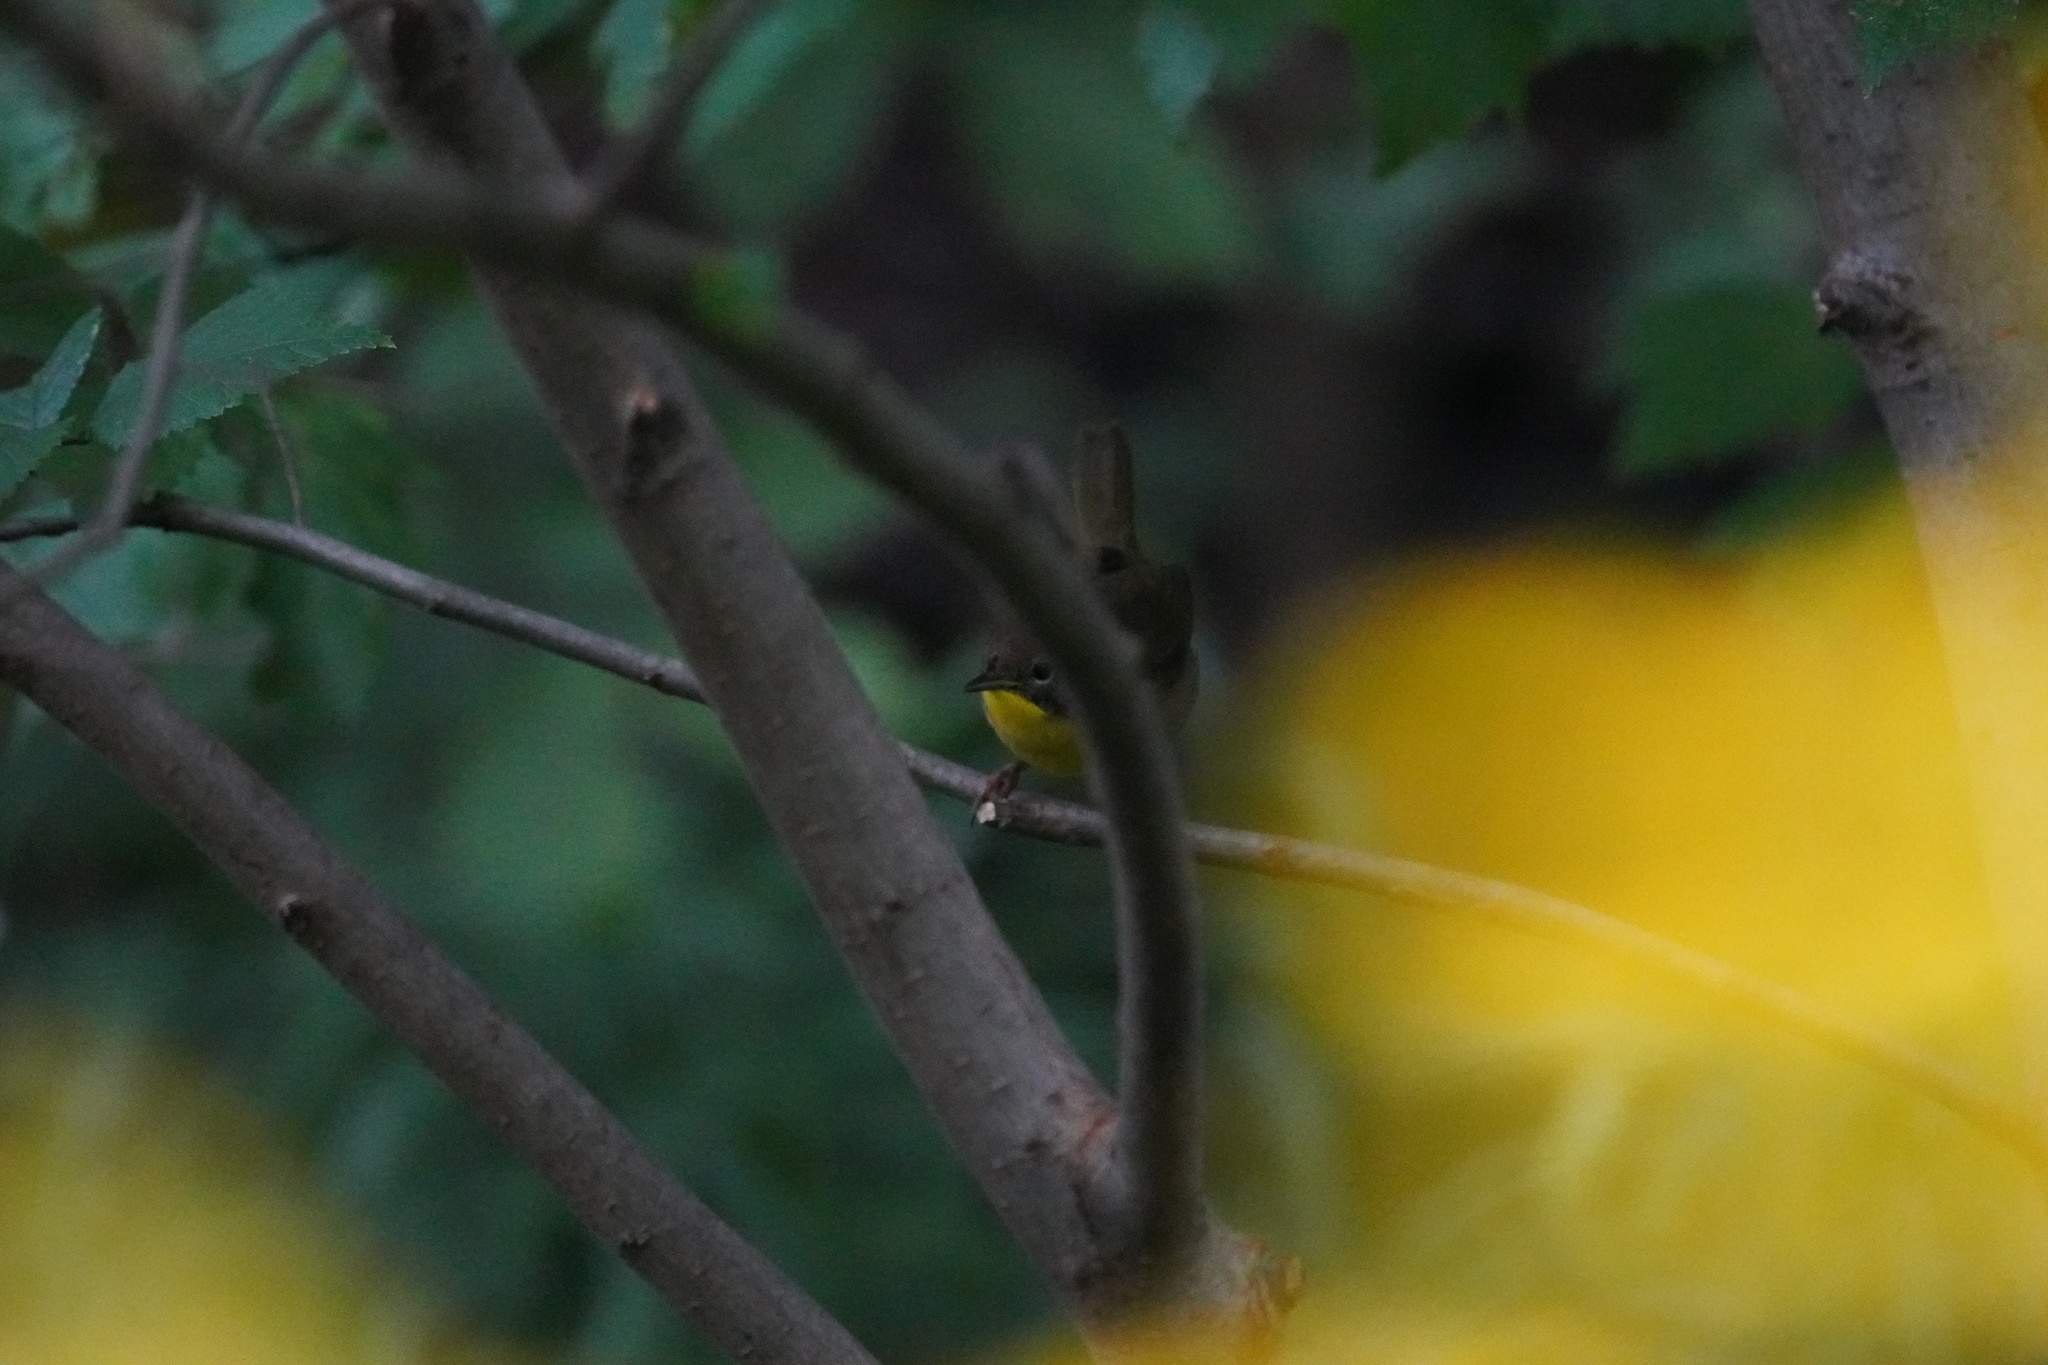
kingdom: Animalia
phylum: Chordata
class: Aves
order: Passeriformes
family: Parulidae
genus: Geothlypis
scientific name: Geothlypis trichas
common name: Common yellowthroat
